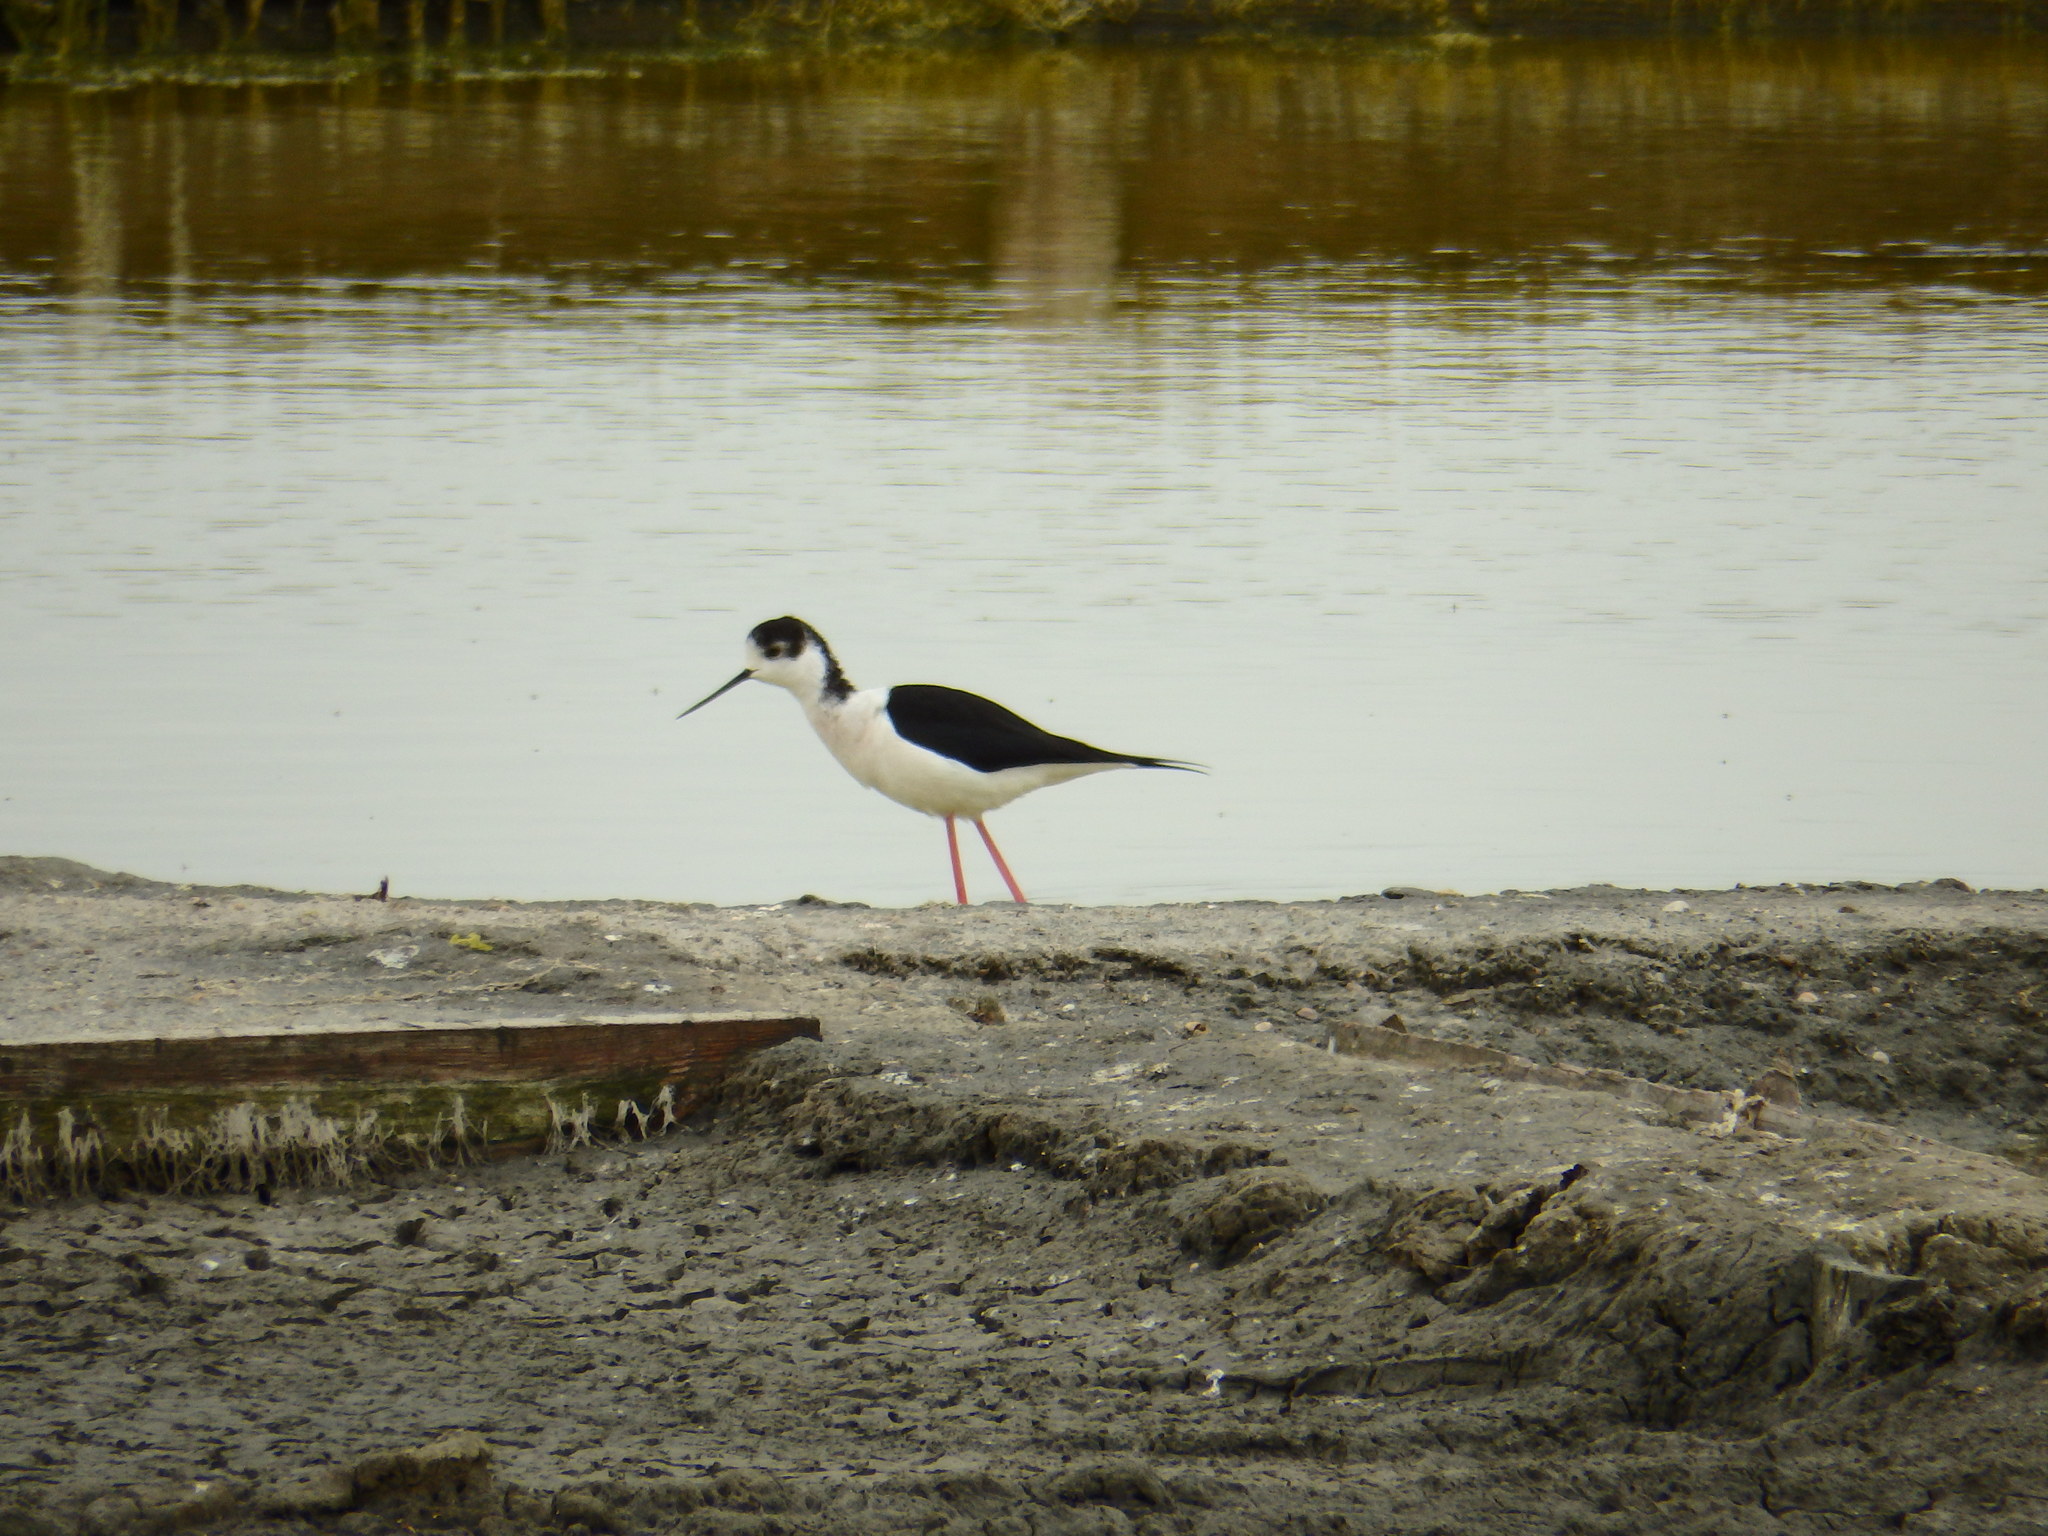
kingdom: Animalia
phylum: Chordata
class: Aves
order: Charadriiformes
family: Recurvirostridae
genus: Himantopus
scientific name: Himantopus himantopus
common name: Black-winged stilt
